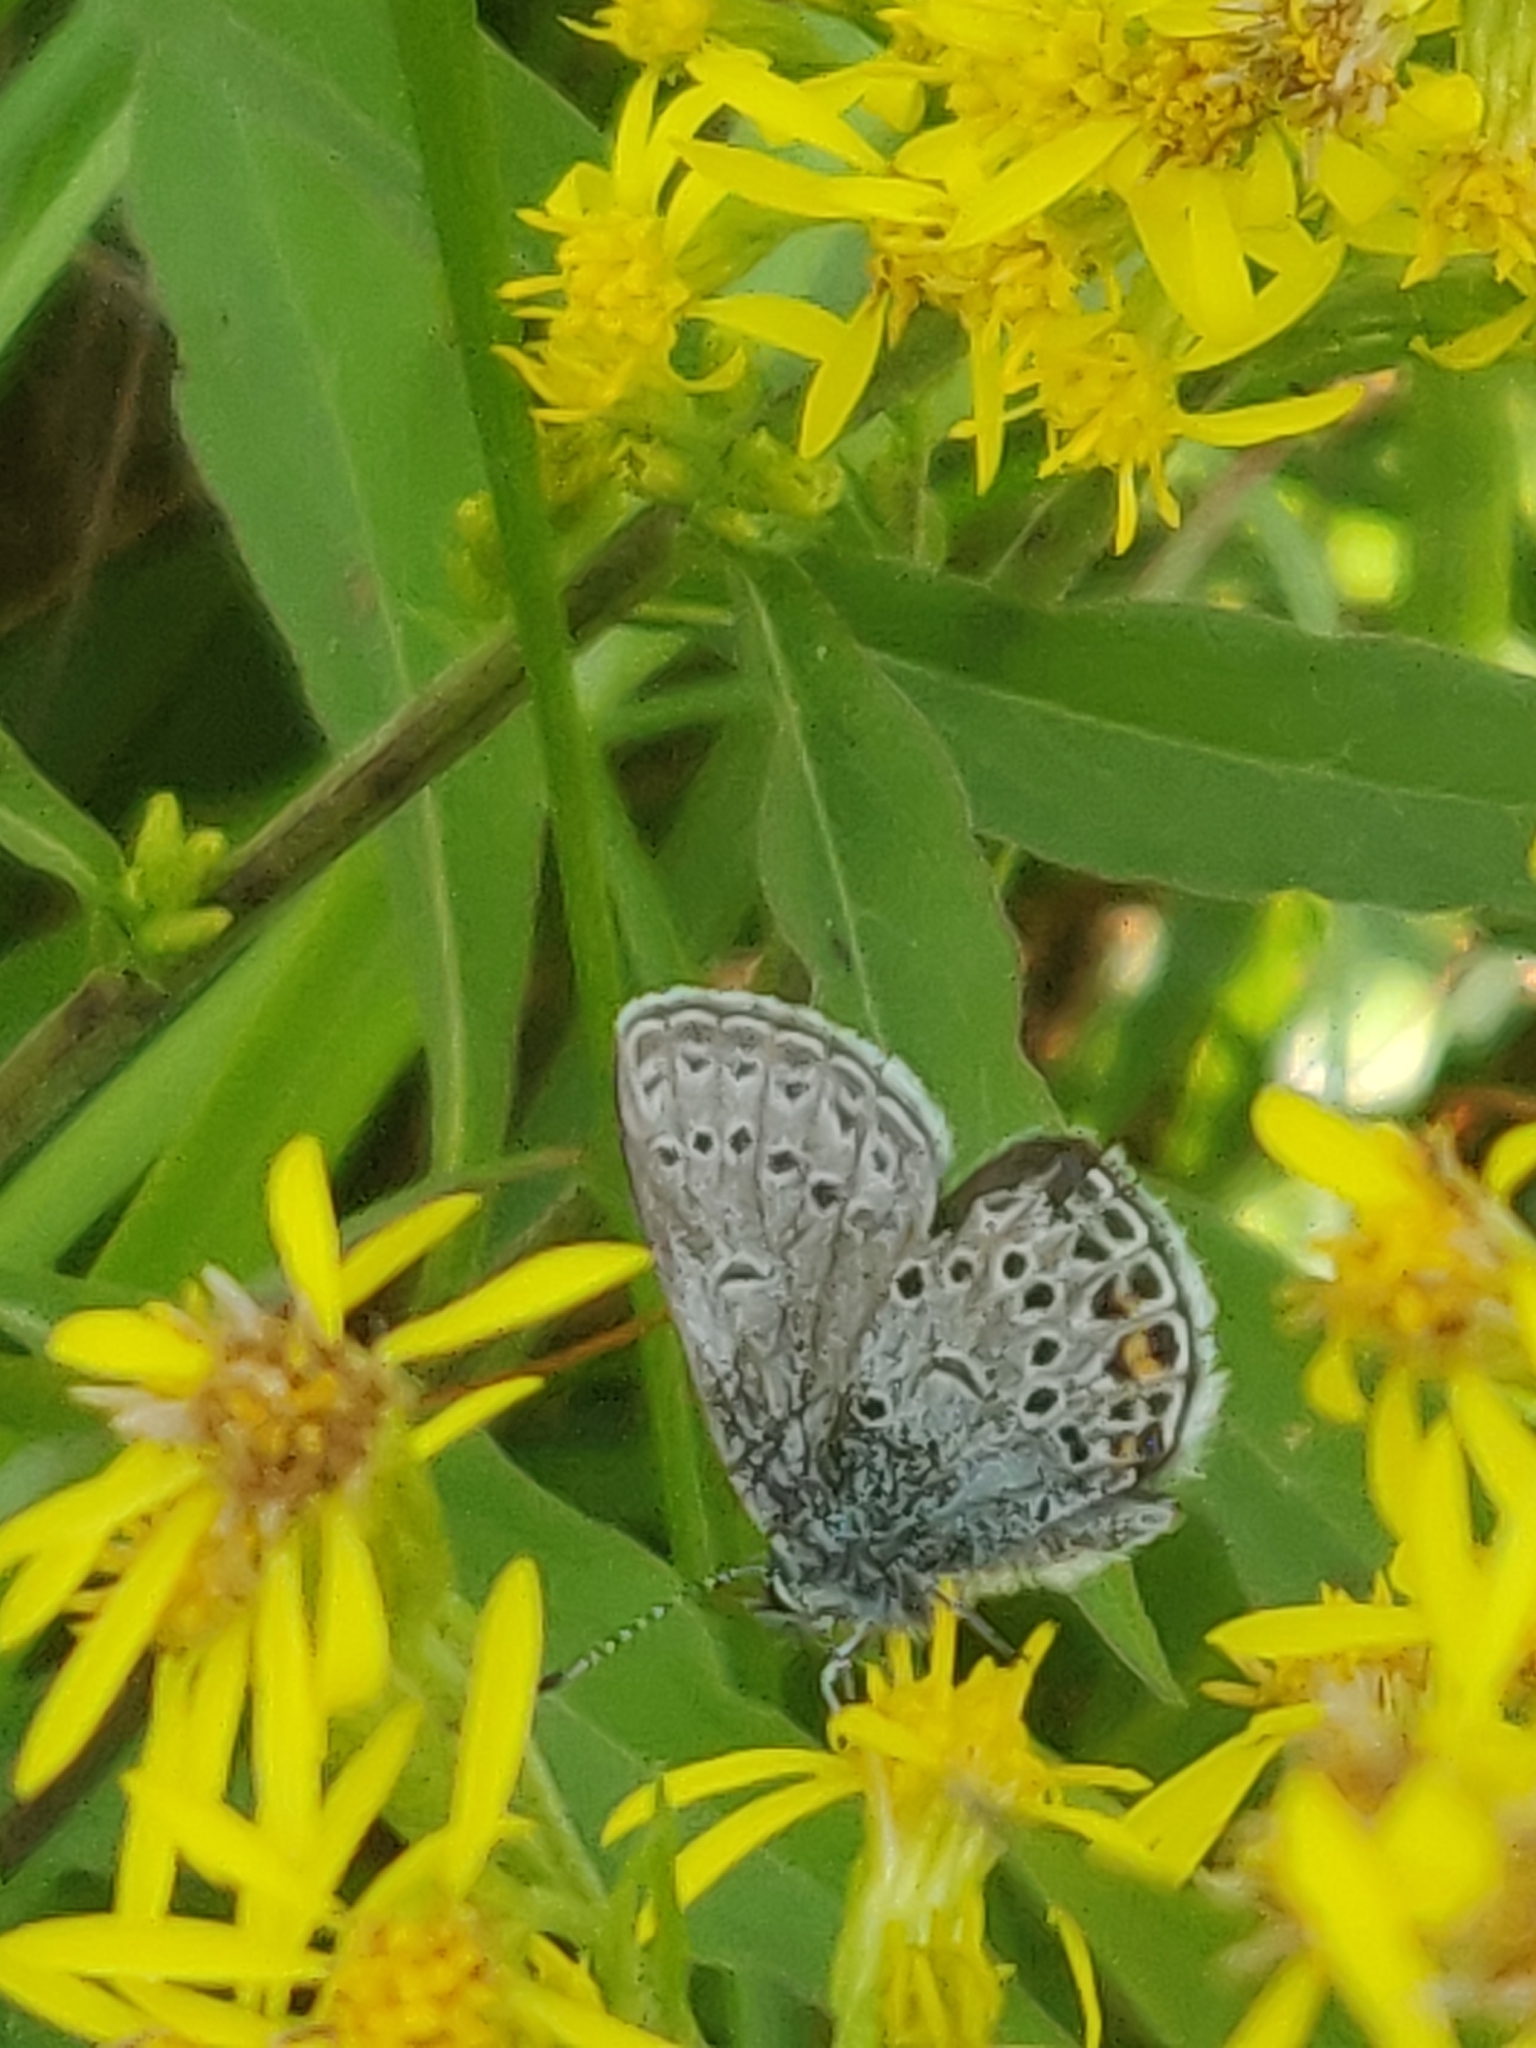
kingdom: Animalia
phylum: Arthropoda
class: Insecta
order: Lepidoptera
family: Lycaenidae
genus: Vacciniina
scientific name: Vacciniina optilete
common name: Cranberry blue
